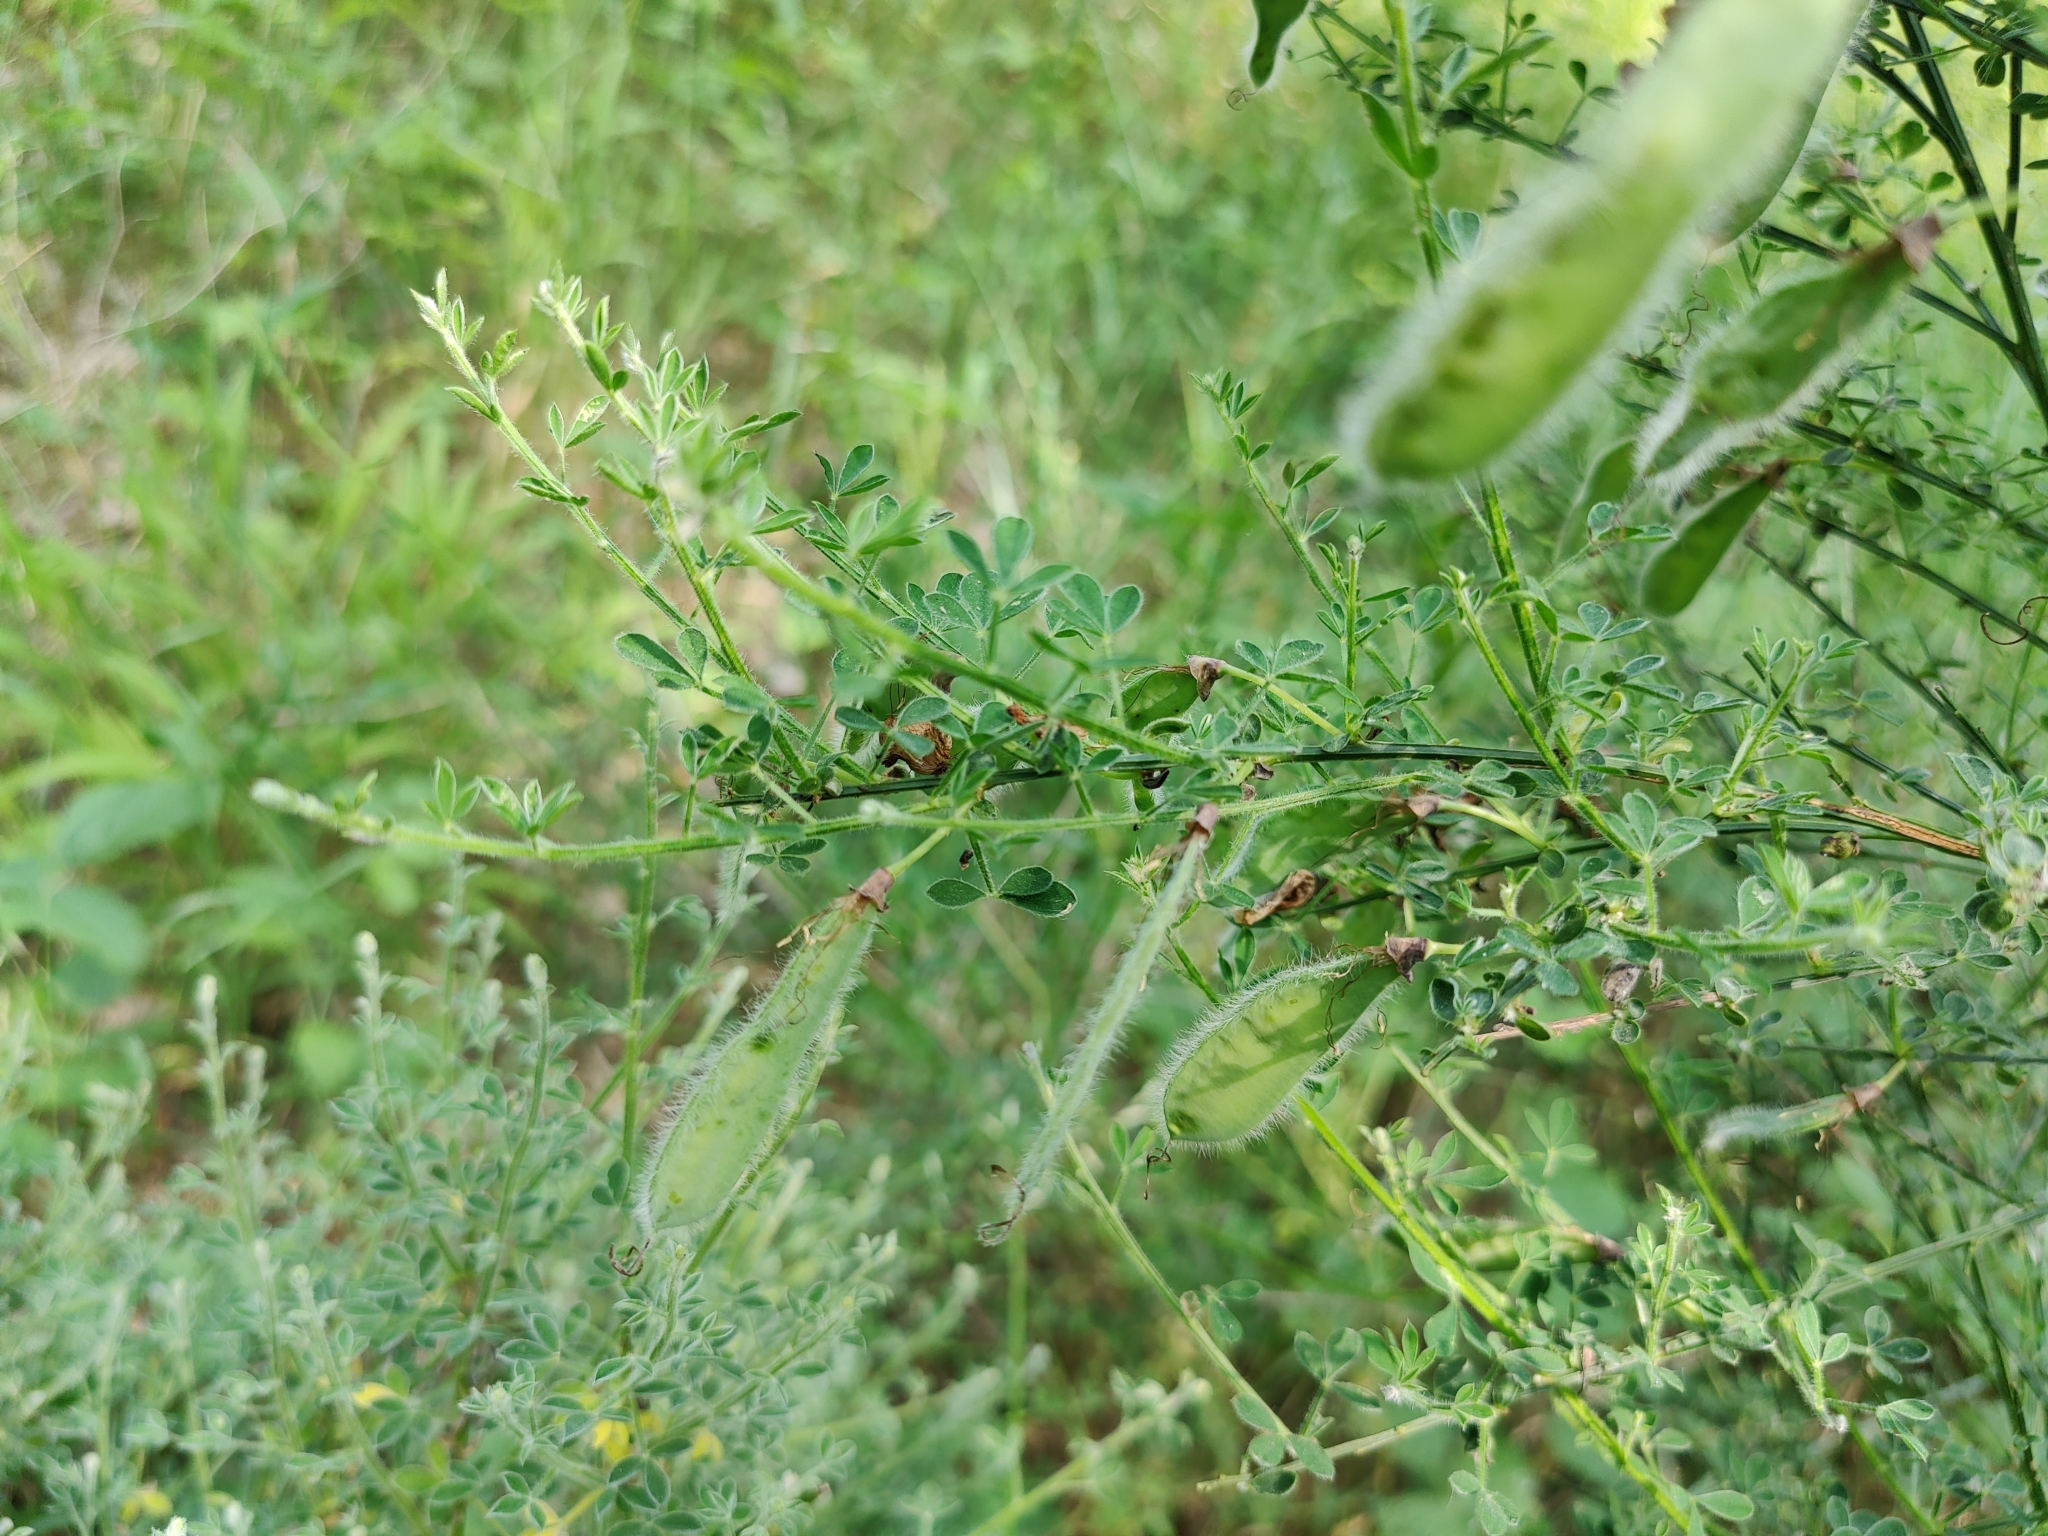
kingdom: Plantae
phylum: Tracheophyta
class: Magnoliopsida
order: Fabales
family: Fabaceae
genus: Cytisus
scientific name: Cytisus scoparius
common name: Scotch broom
